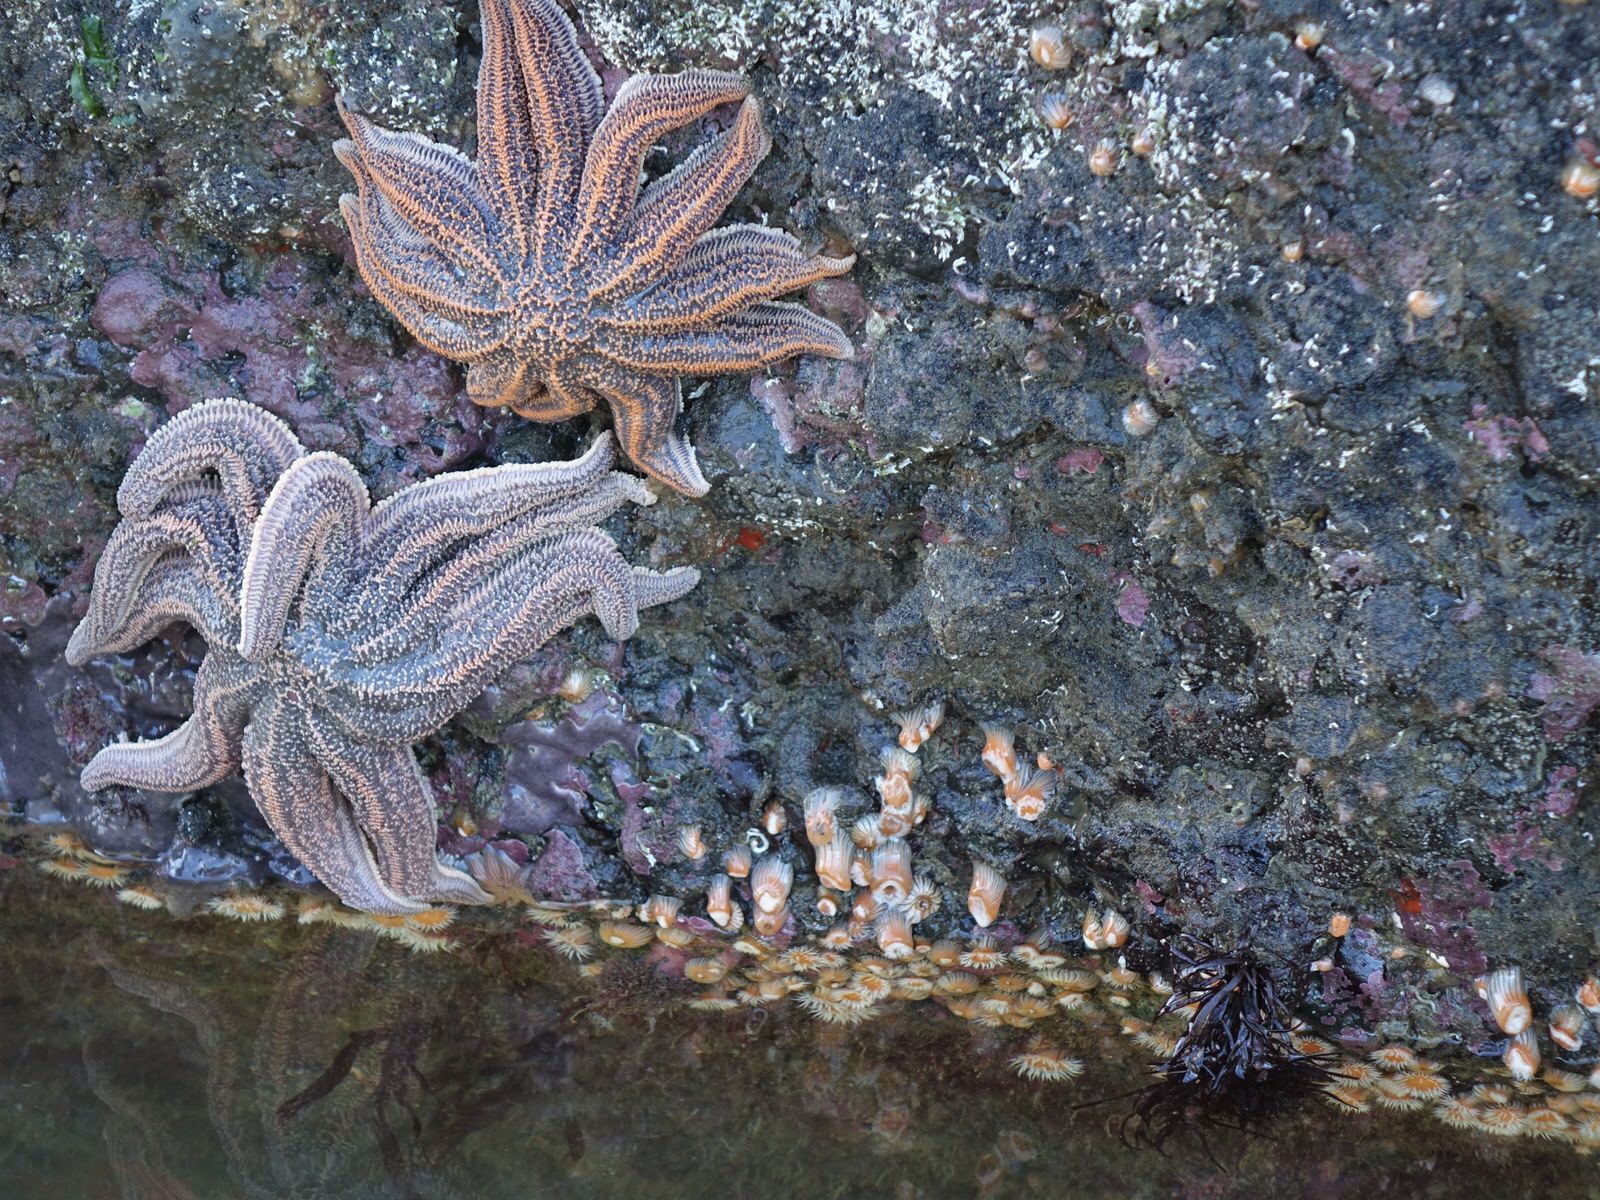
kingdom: Animalia
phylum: Cnidaria
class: Anthozoa
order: Actiniaria
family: Sagartiidae
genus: Anthothoe
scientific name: Anthothoe albocincta
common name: Orange striped anemone
